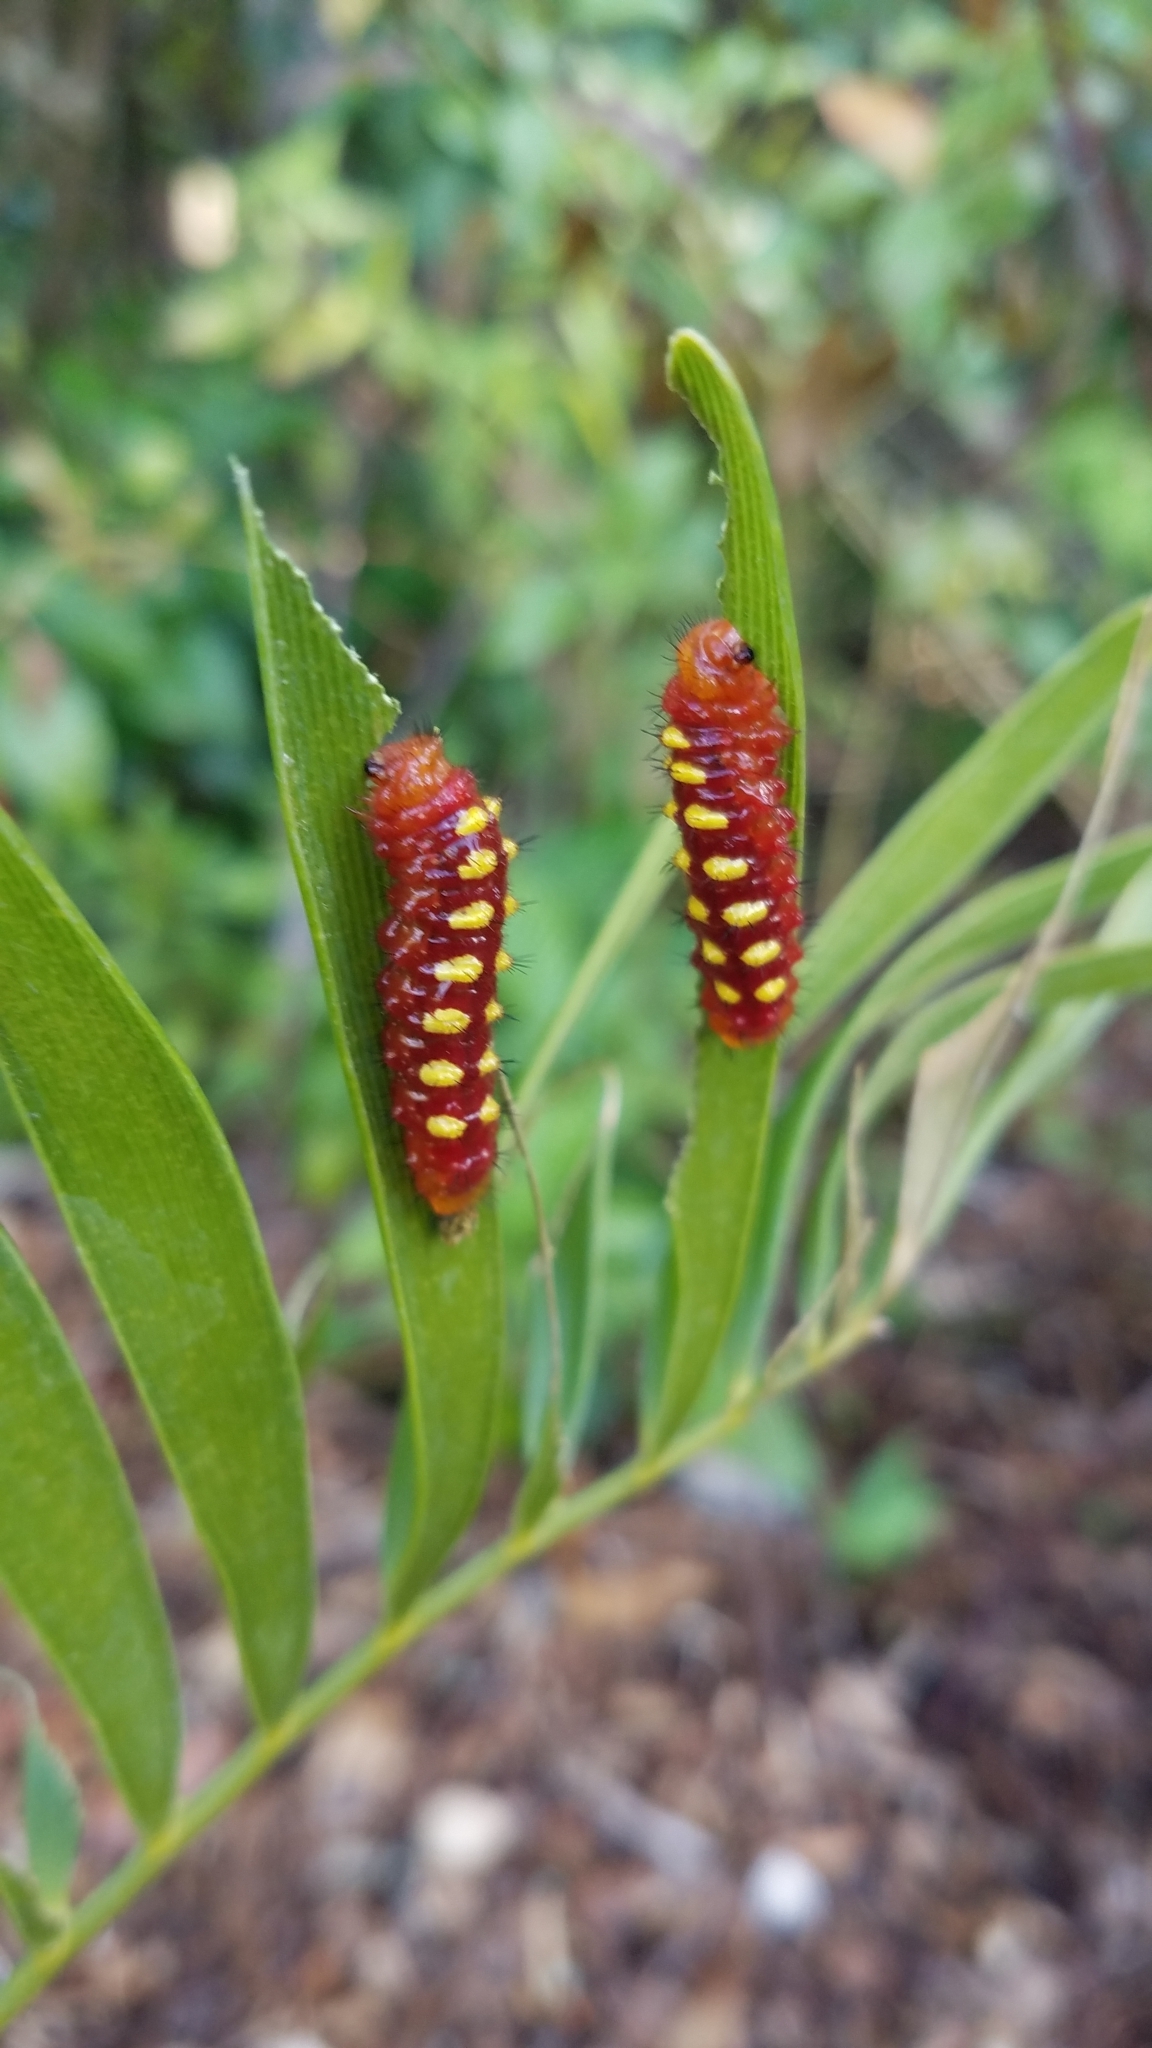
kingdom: Animalia
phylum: Arthropoda
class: Insecta
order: Lepidoptera
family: Lycaenidae
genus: Eumaeus
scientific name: Eumaeus atala
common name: Atala
